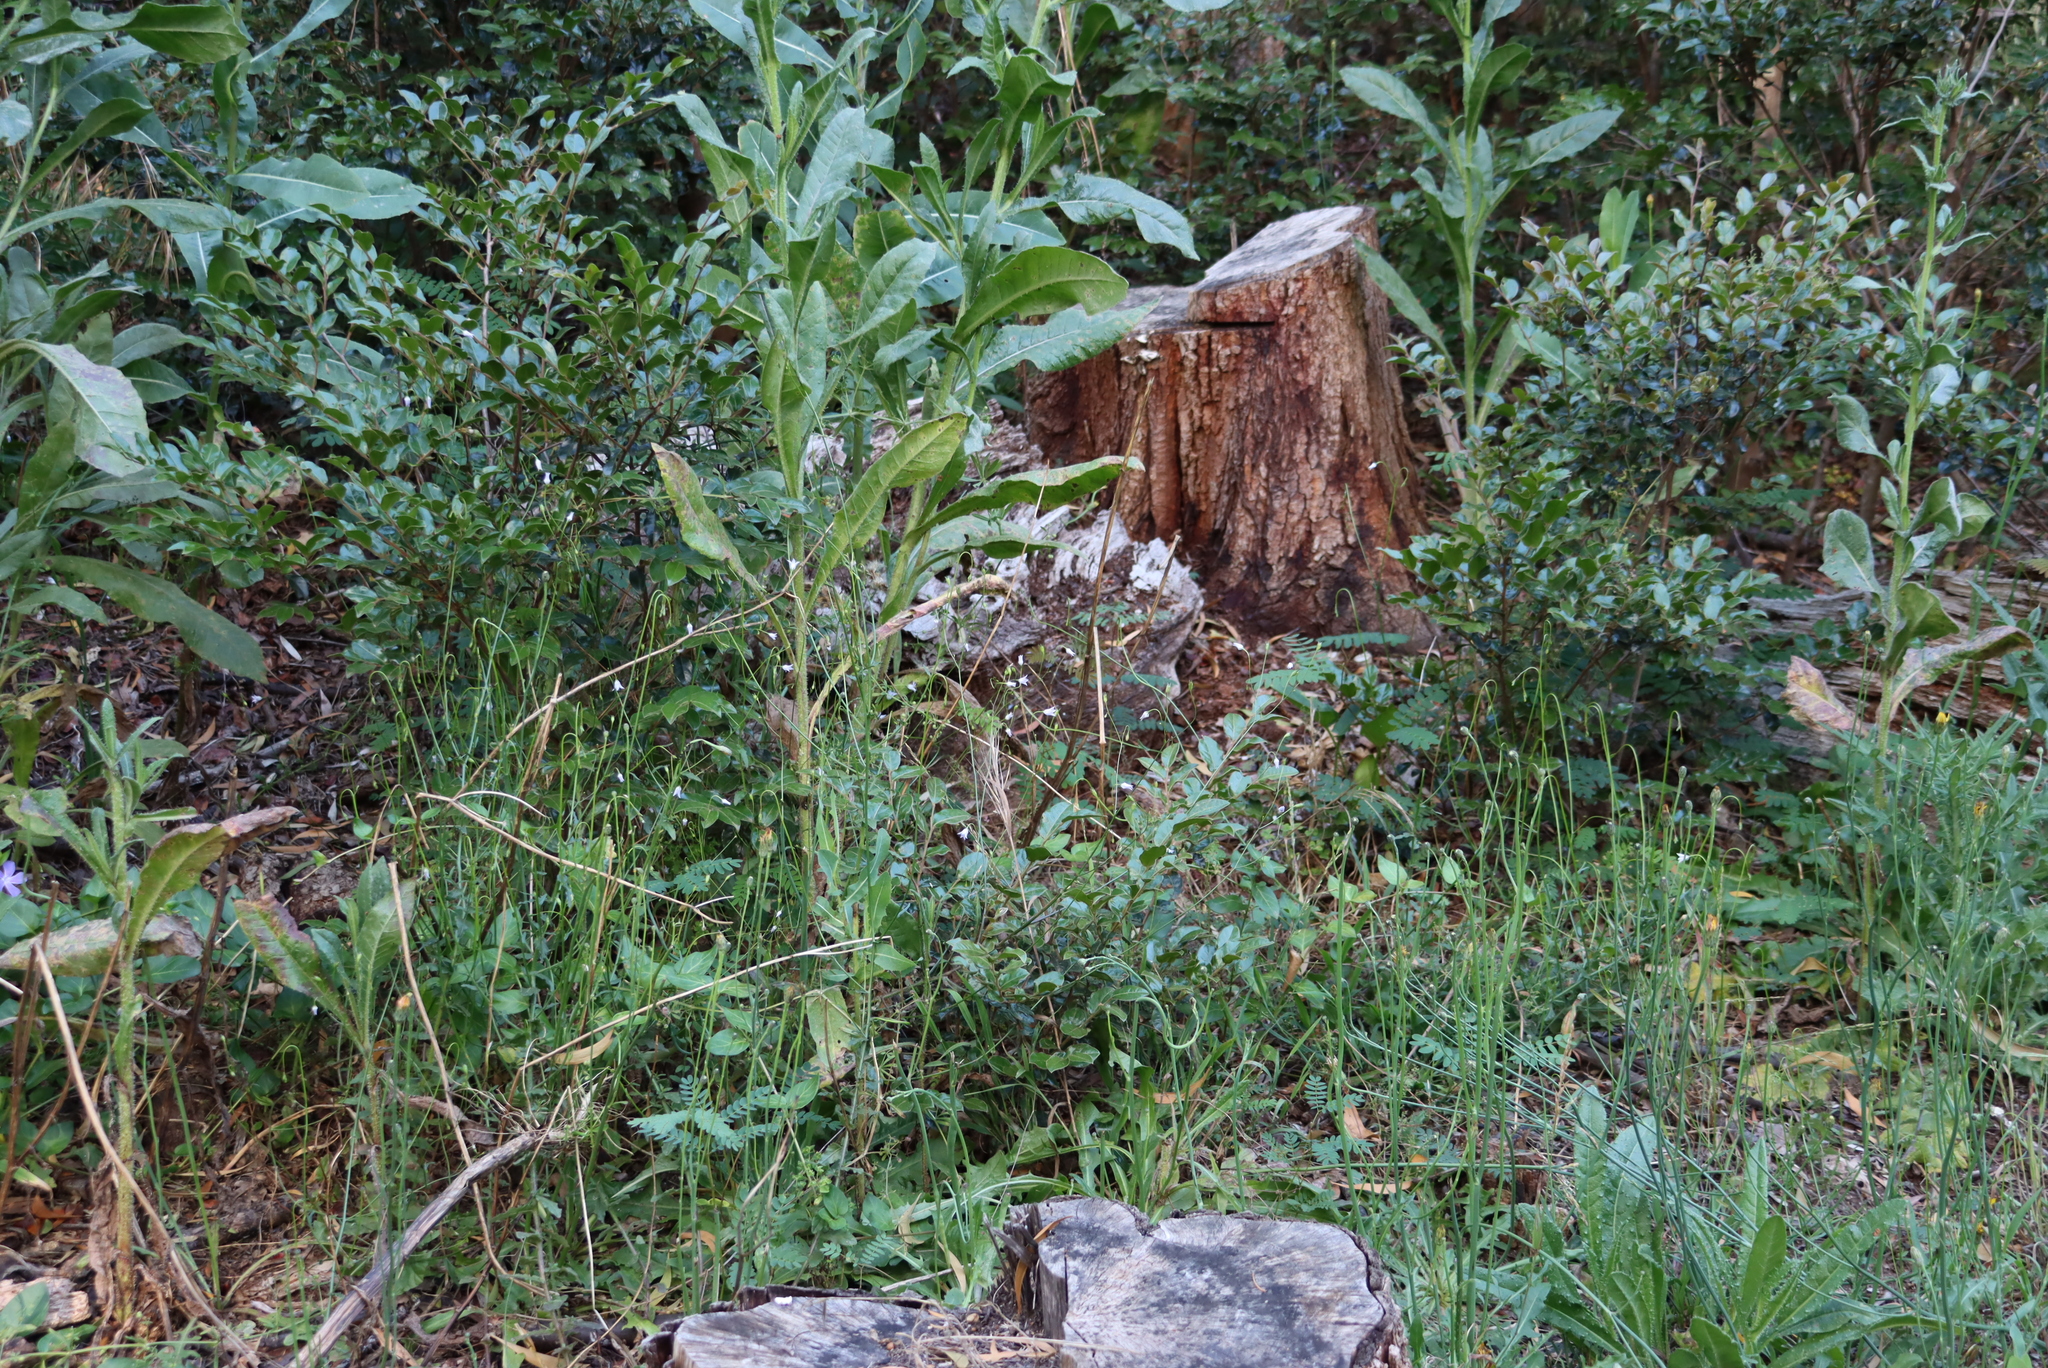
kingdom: Plantae
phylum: Tracheophyta
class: Magnoliopsida
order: Asterales
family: Campanulaceae
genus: Wahlenbergia
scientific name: Wahlenbergia obovata
